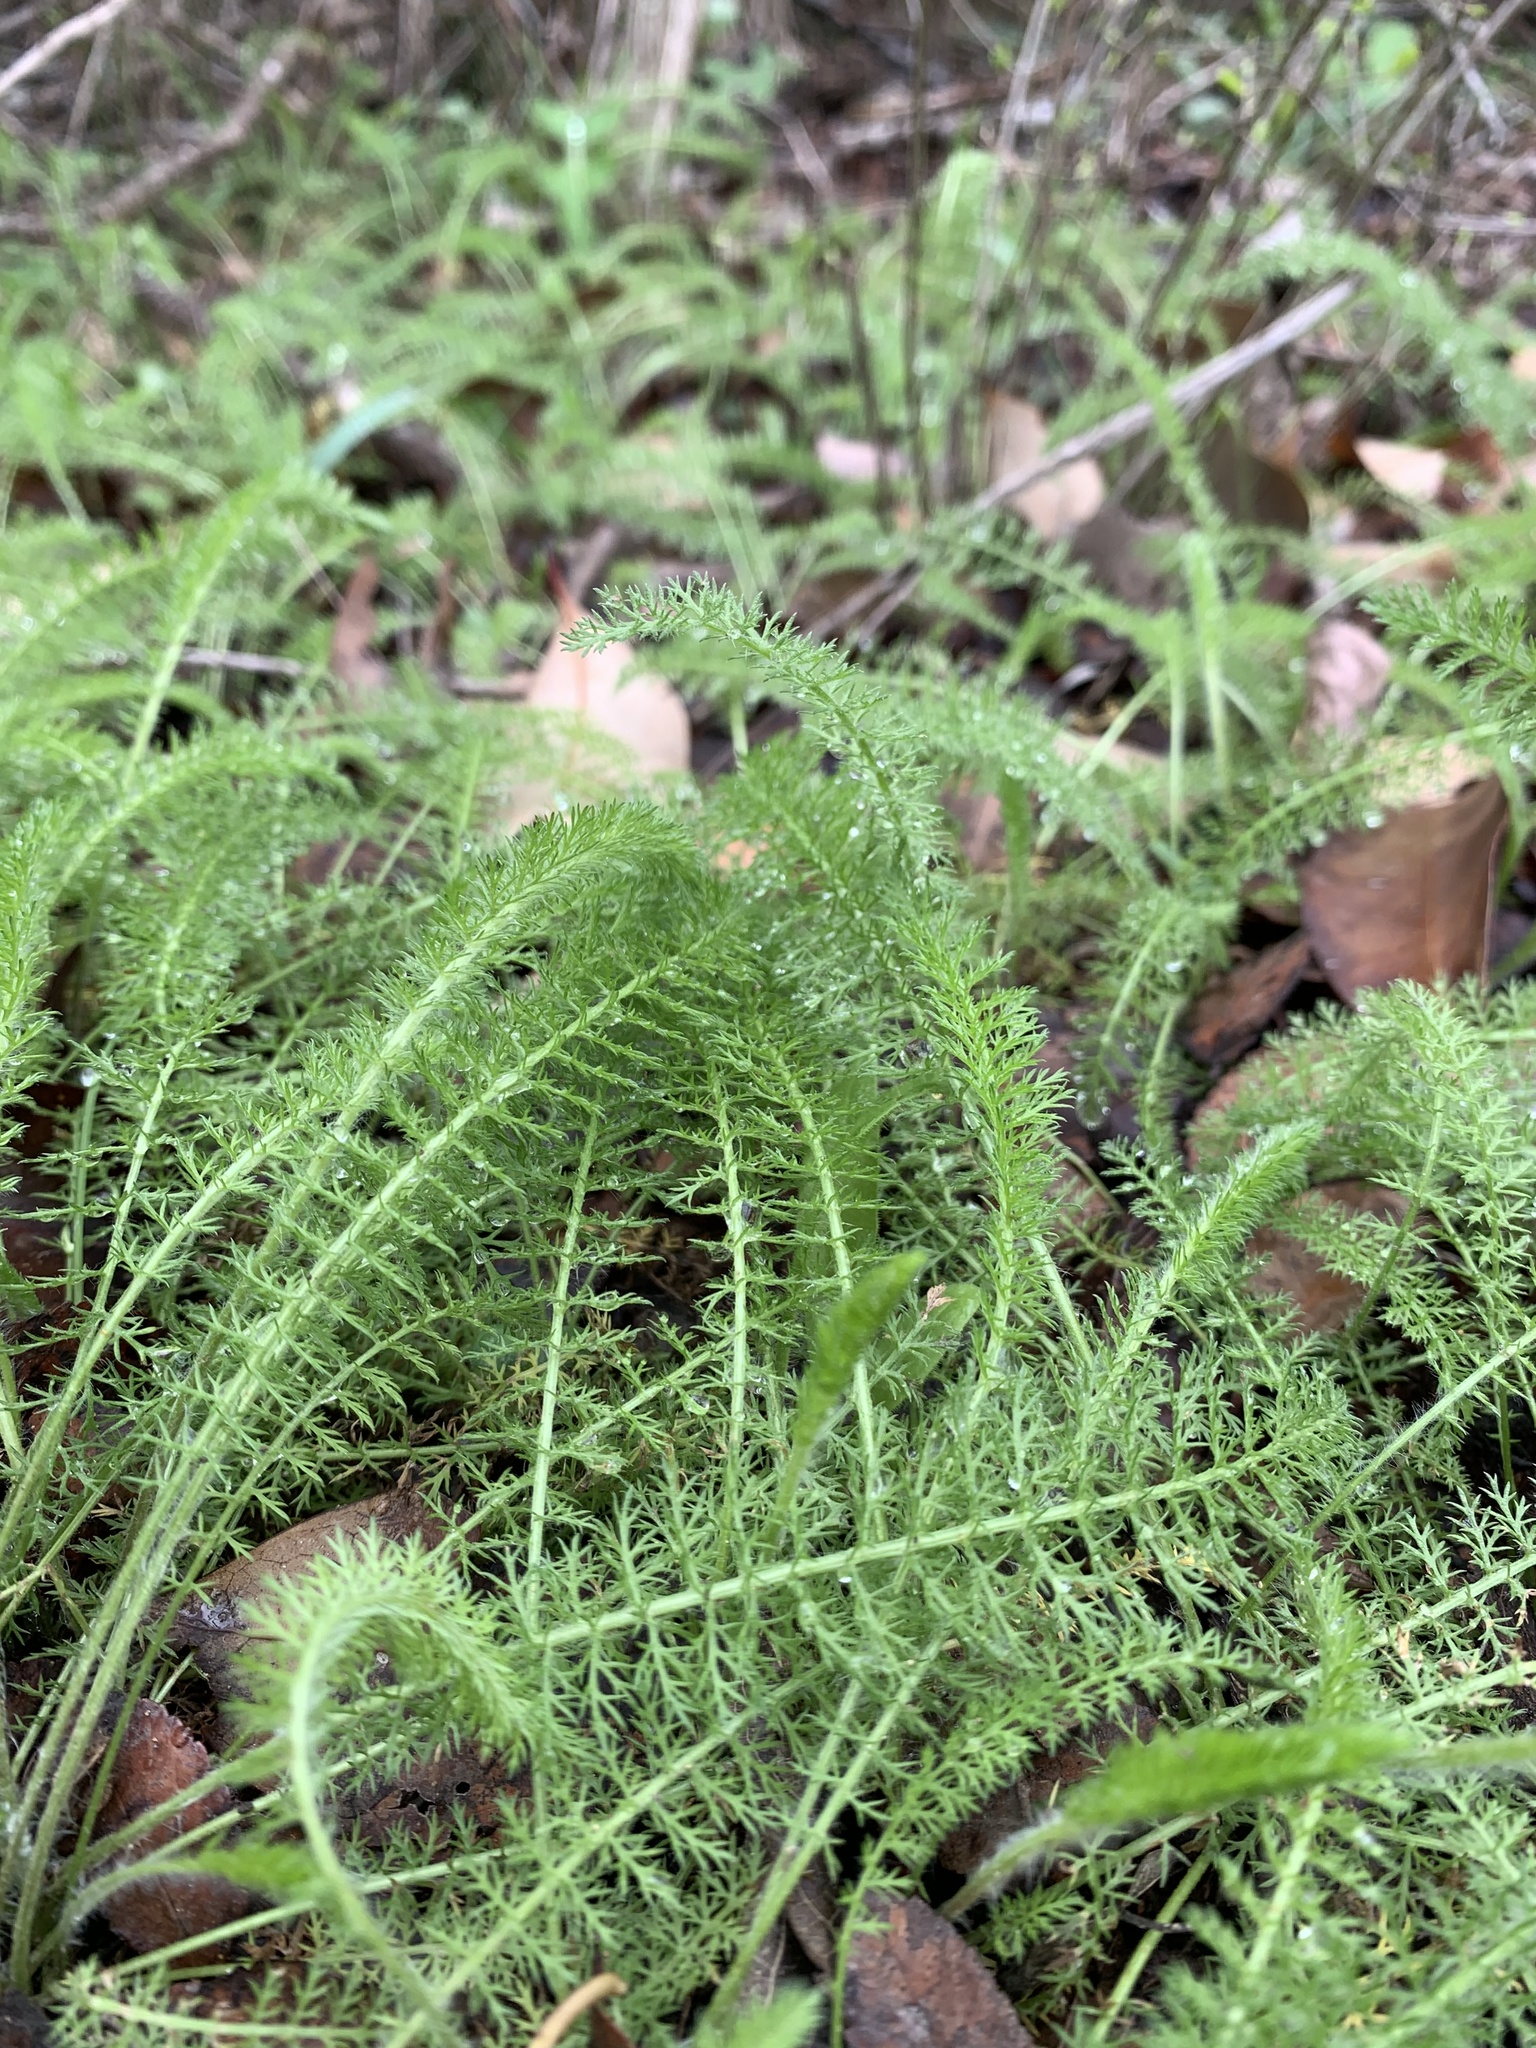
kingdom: Plantae
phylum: Tracheophyta
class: Magnoliopsida
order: Asterales
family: Asteraceae
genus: Achillea
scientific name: Achillea millefolium
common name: Yarrow
